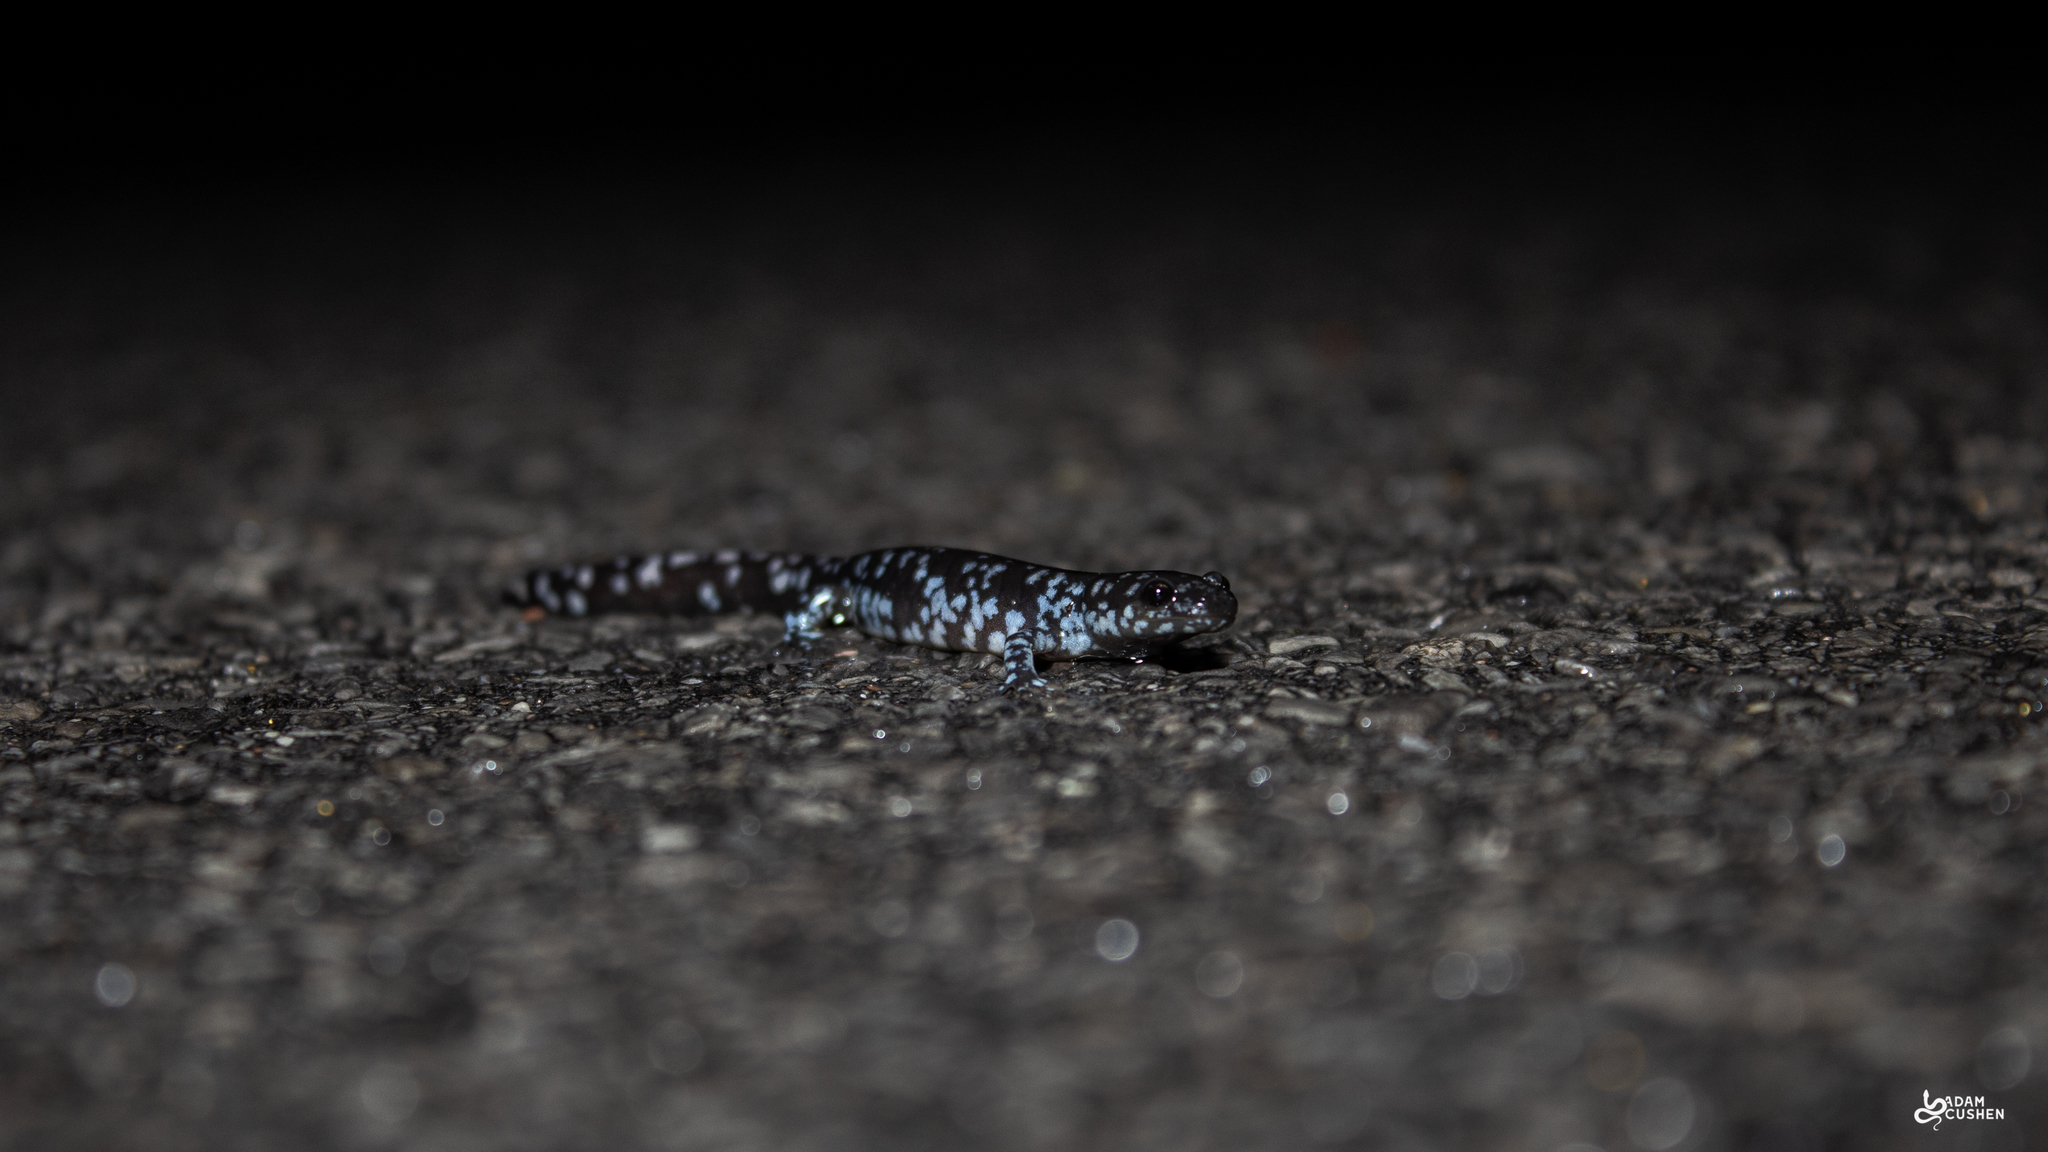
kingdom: Animalia
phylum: Chordata
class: Amphibia
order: Caudata
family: Ambystomatidae
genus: Ambystoma
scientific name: Ambystoma laterale
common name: Blue-spotted salamander
